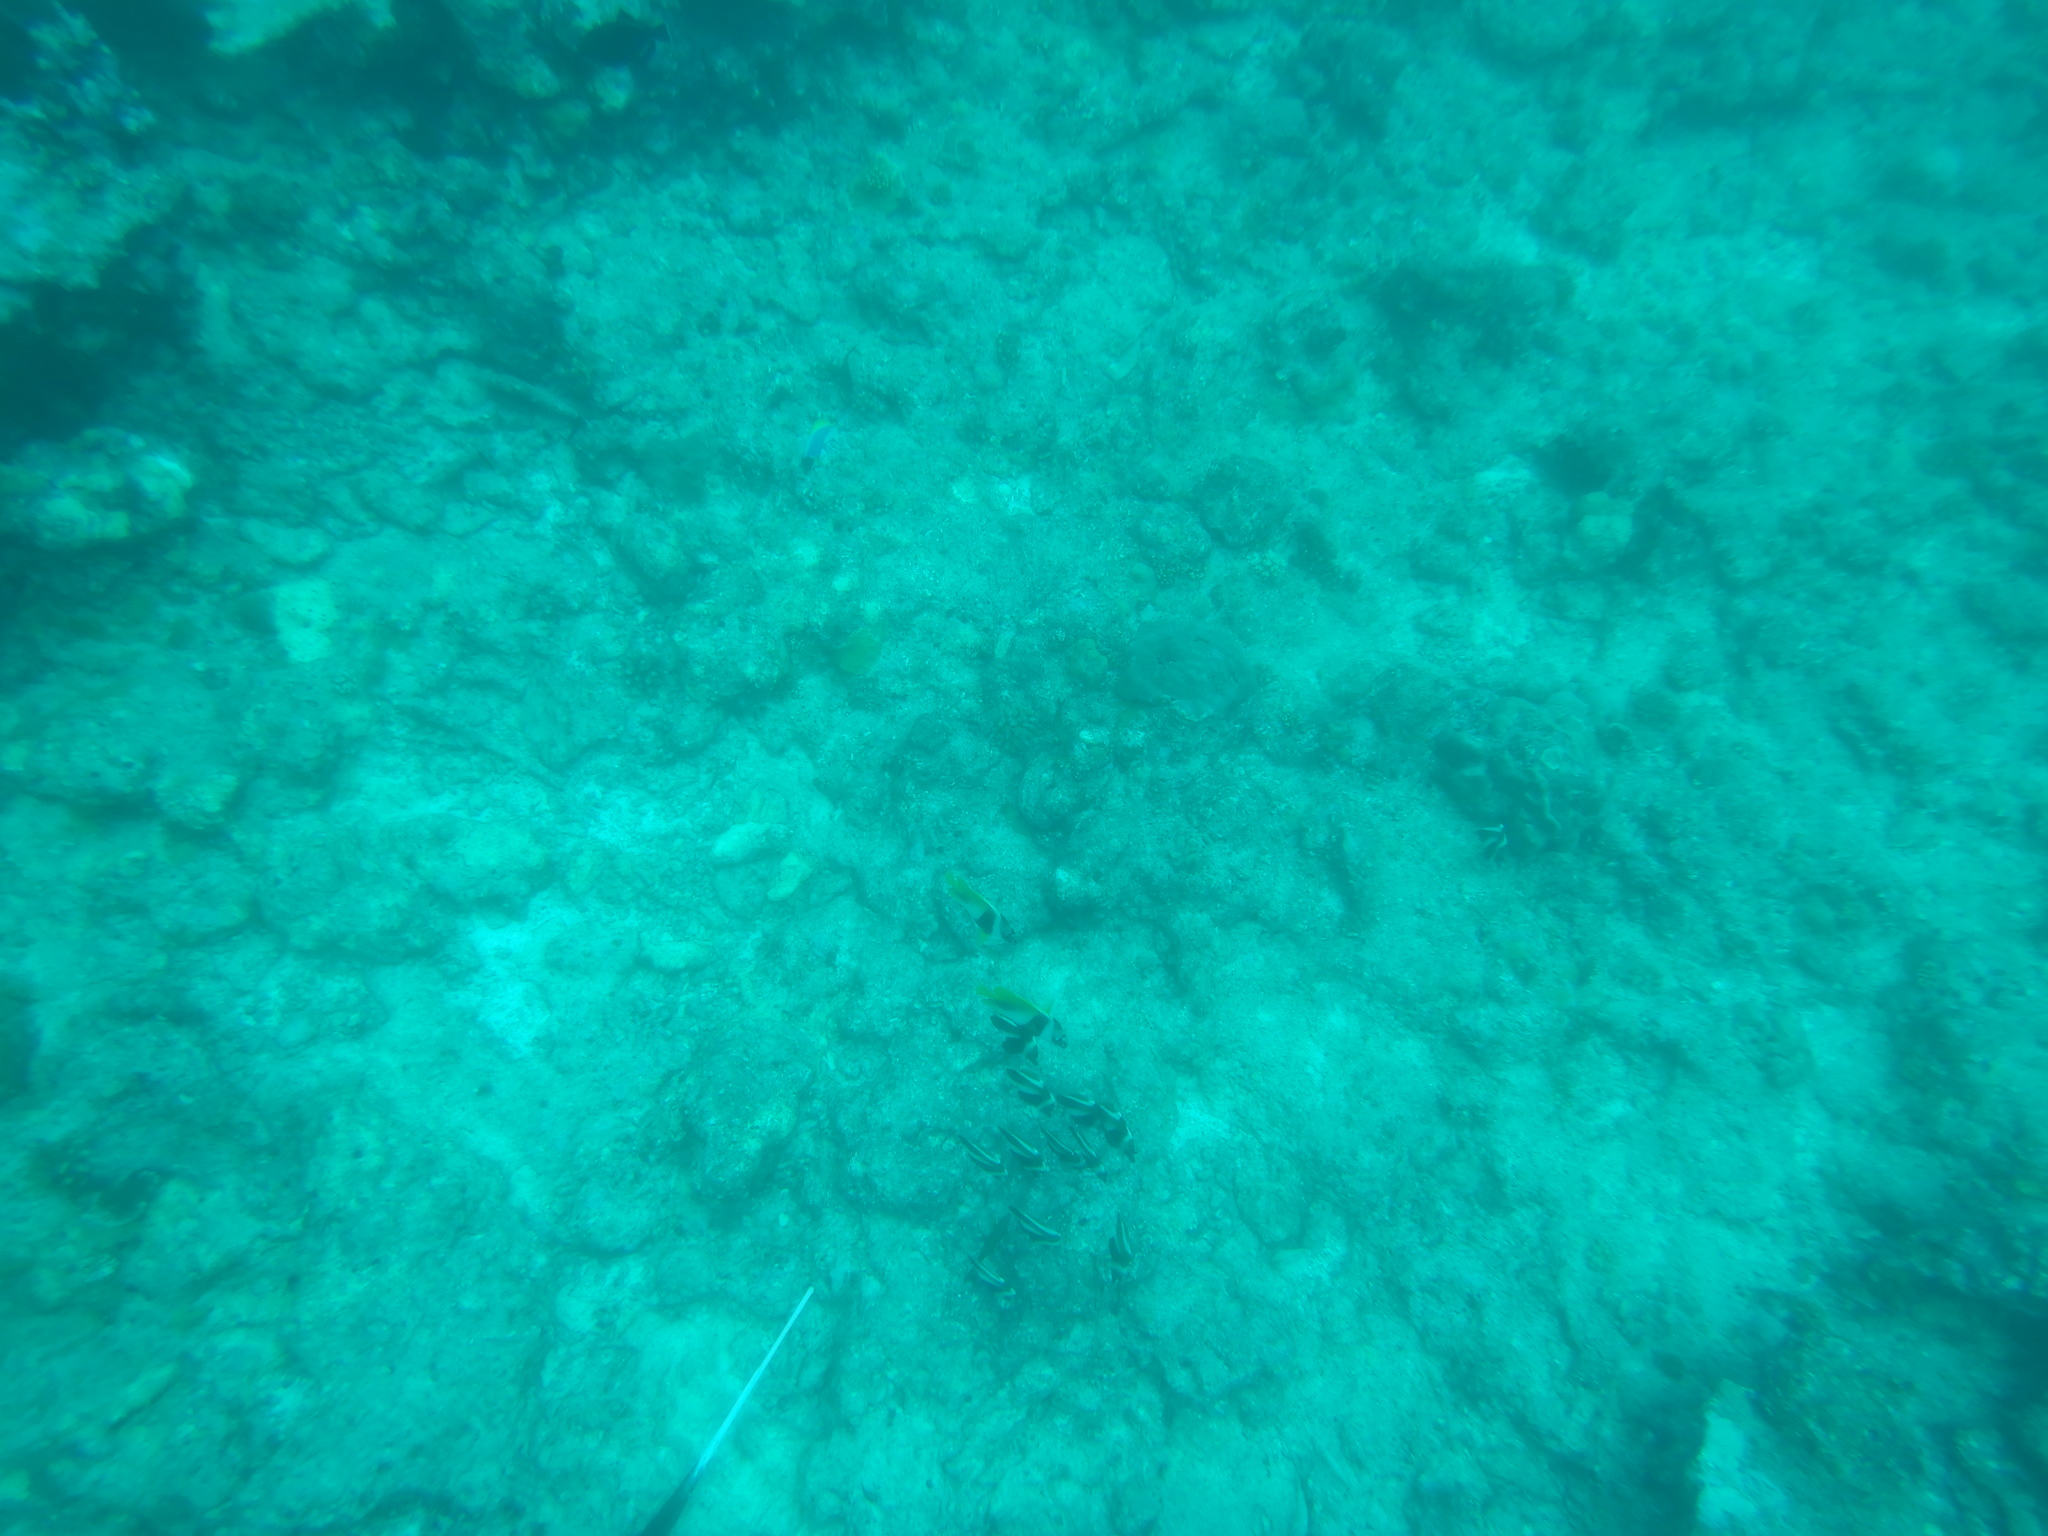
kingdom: Animalia
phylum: Chordata
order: Perciformes
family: Chaetodontidae
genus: Heniochus
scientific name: Heniochus pleurotaenia
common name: Indian ocean bannerfish
